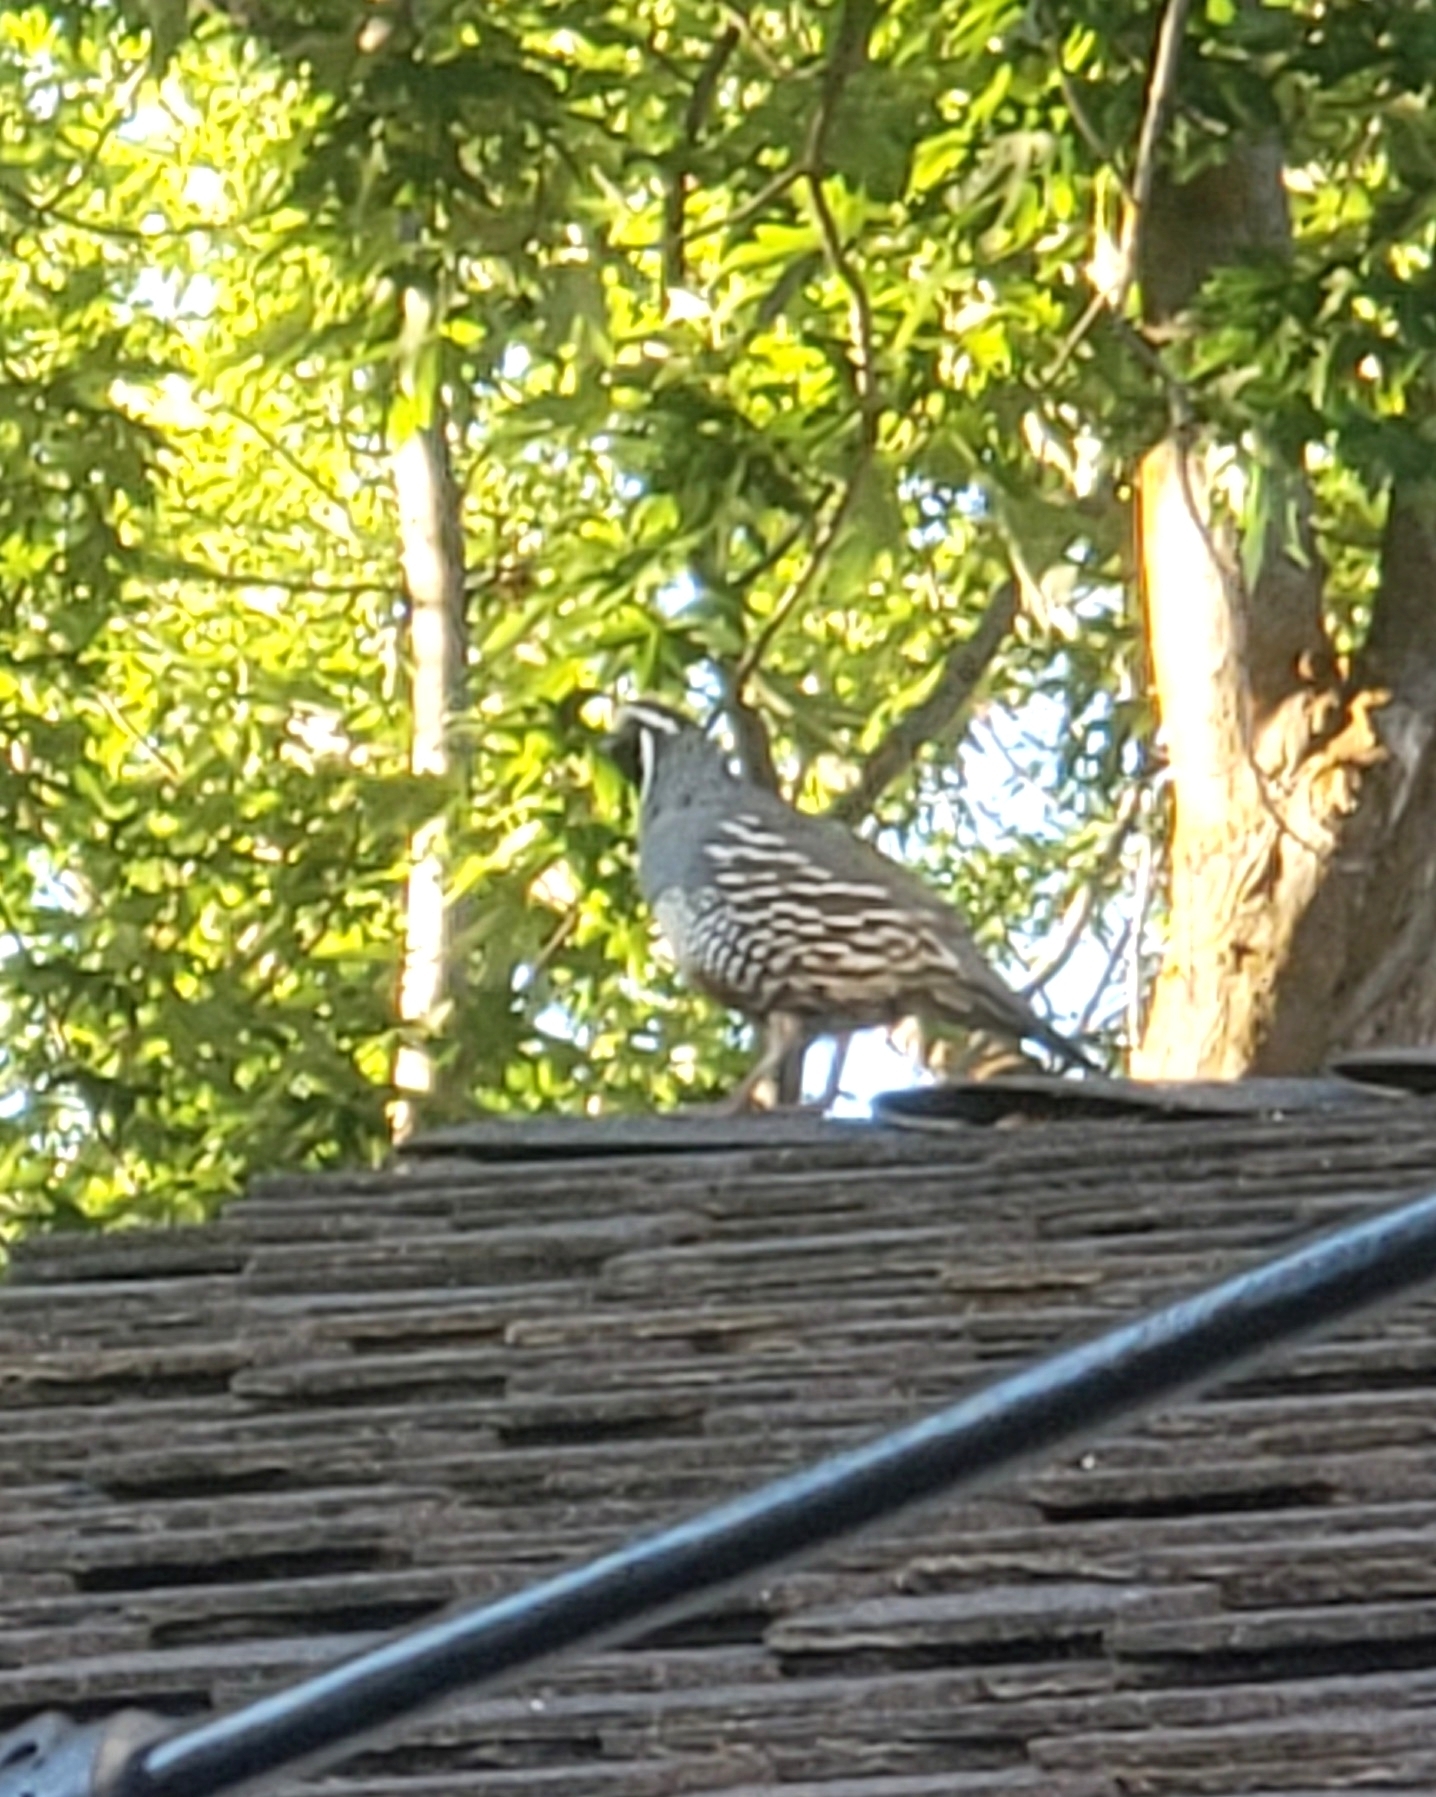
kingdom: Animalia
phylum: Chordata
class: Aves
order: Galliformes
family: Odontophoridae
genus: Callipepla
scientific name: Callipepla californica
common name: California quail
